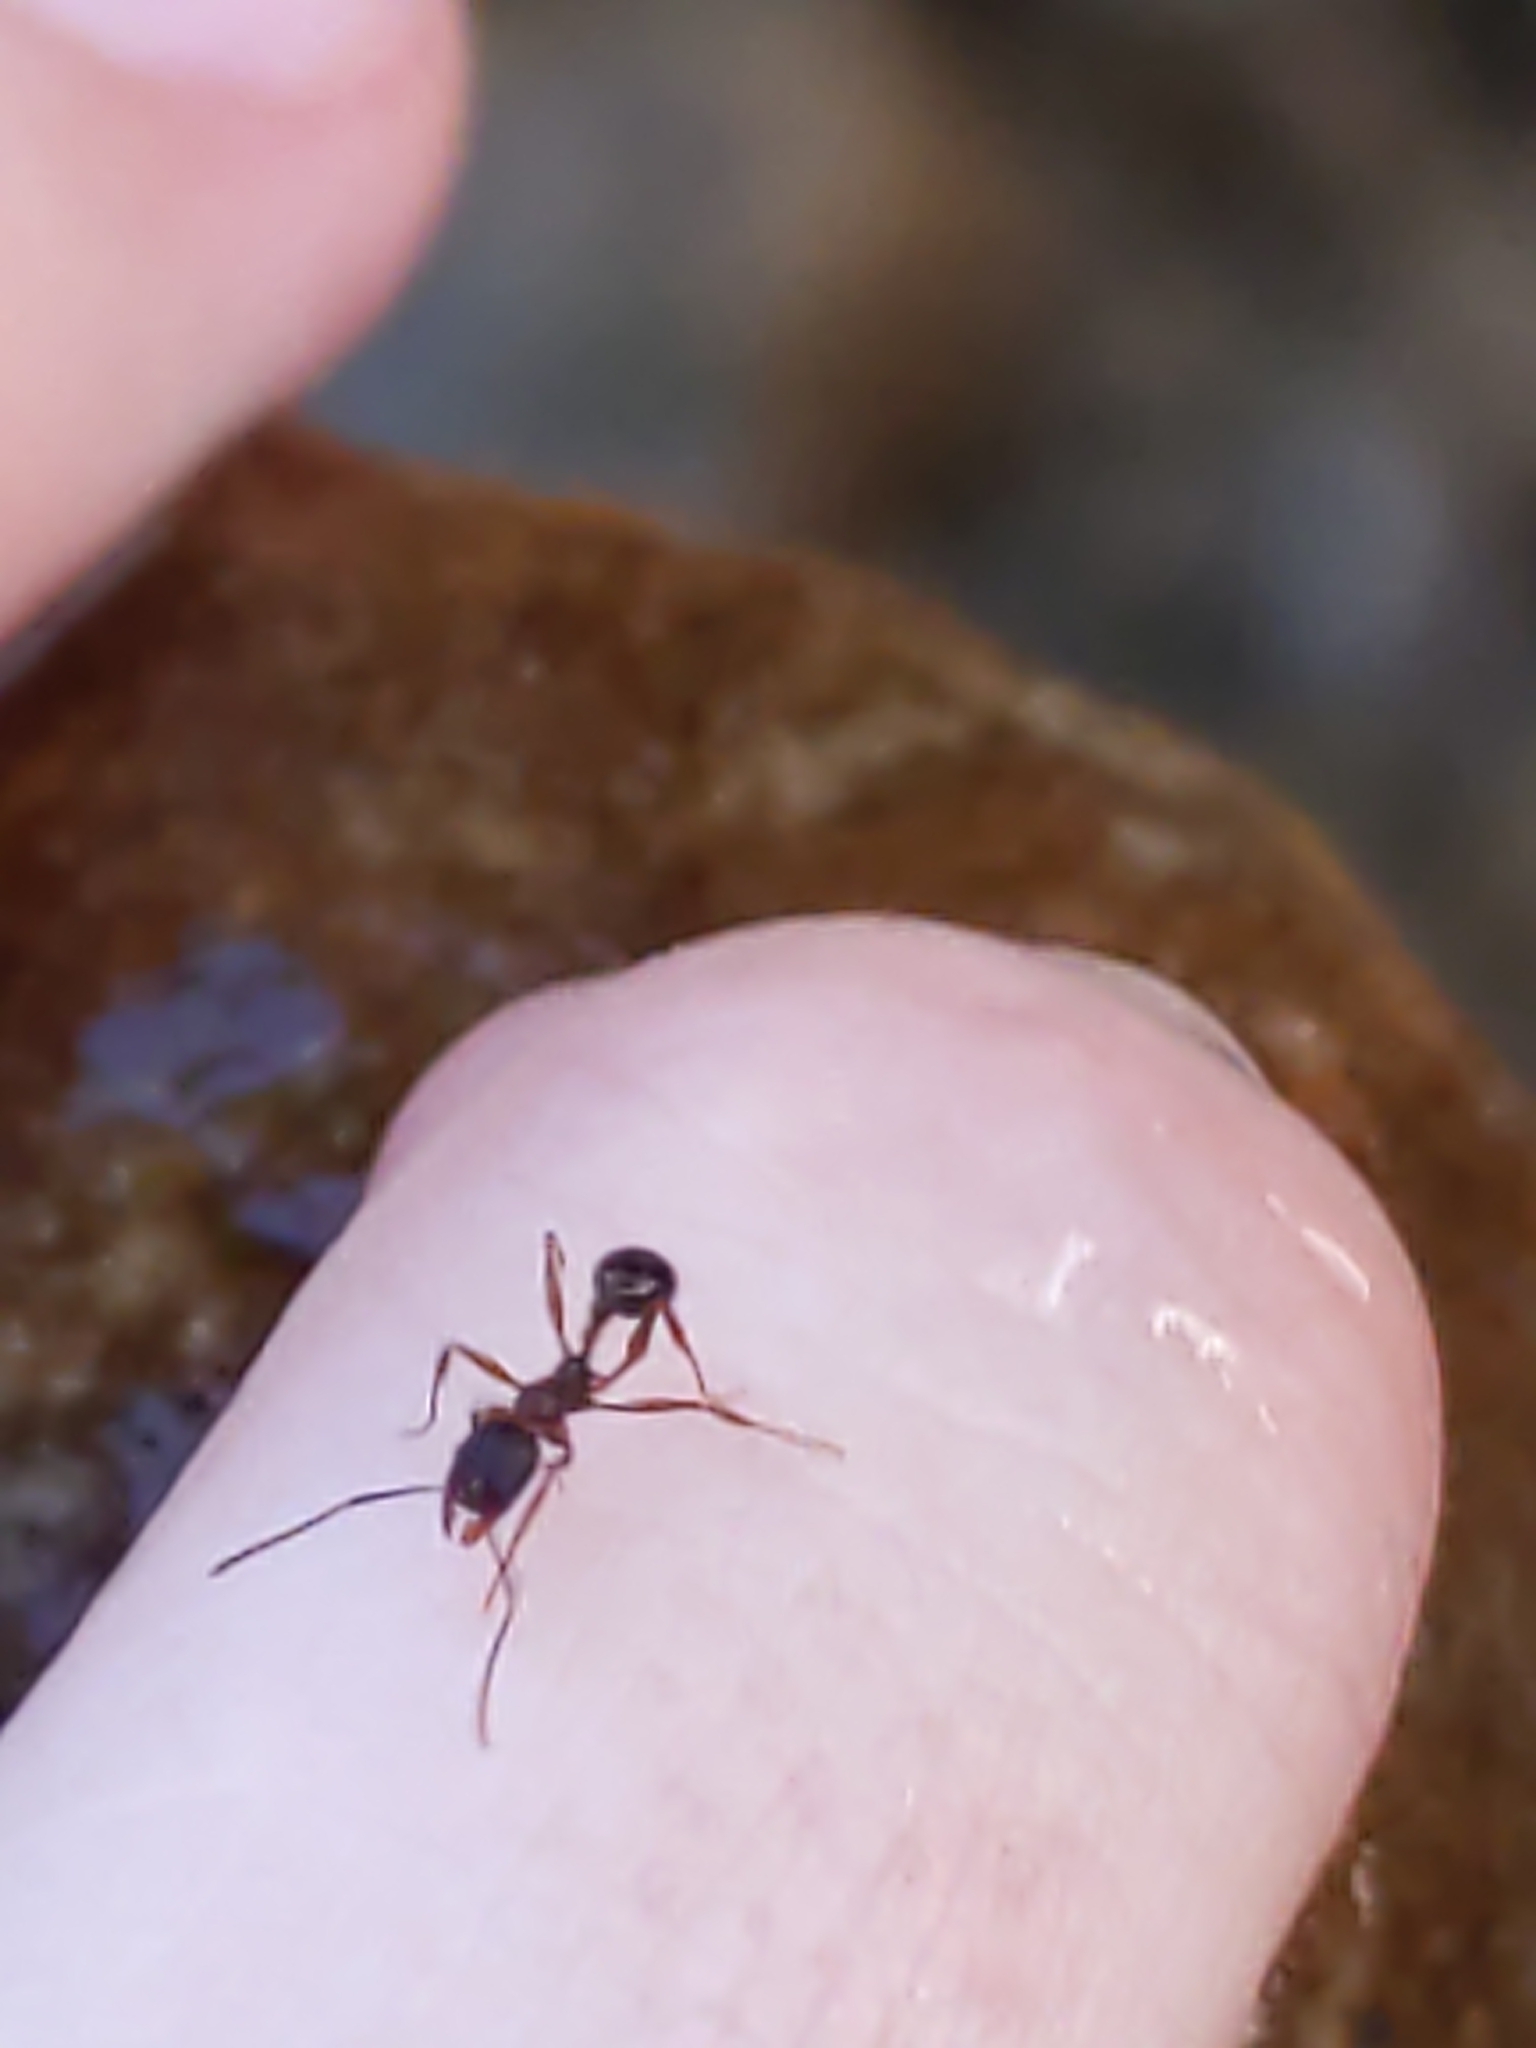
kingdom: Animalia
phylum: Arthropoda
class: Insecta
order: Hymenoptera
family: Formicidae
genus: Aphaenogaster
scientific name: Aphaenogaster
